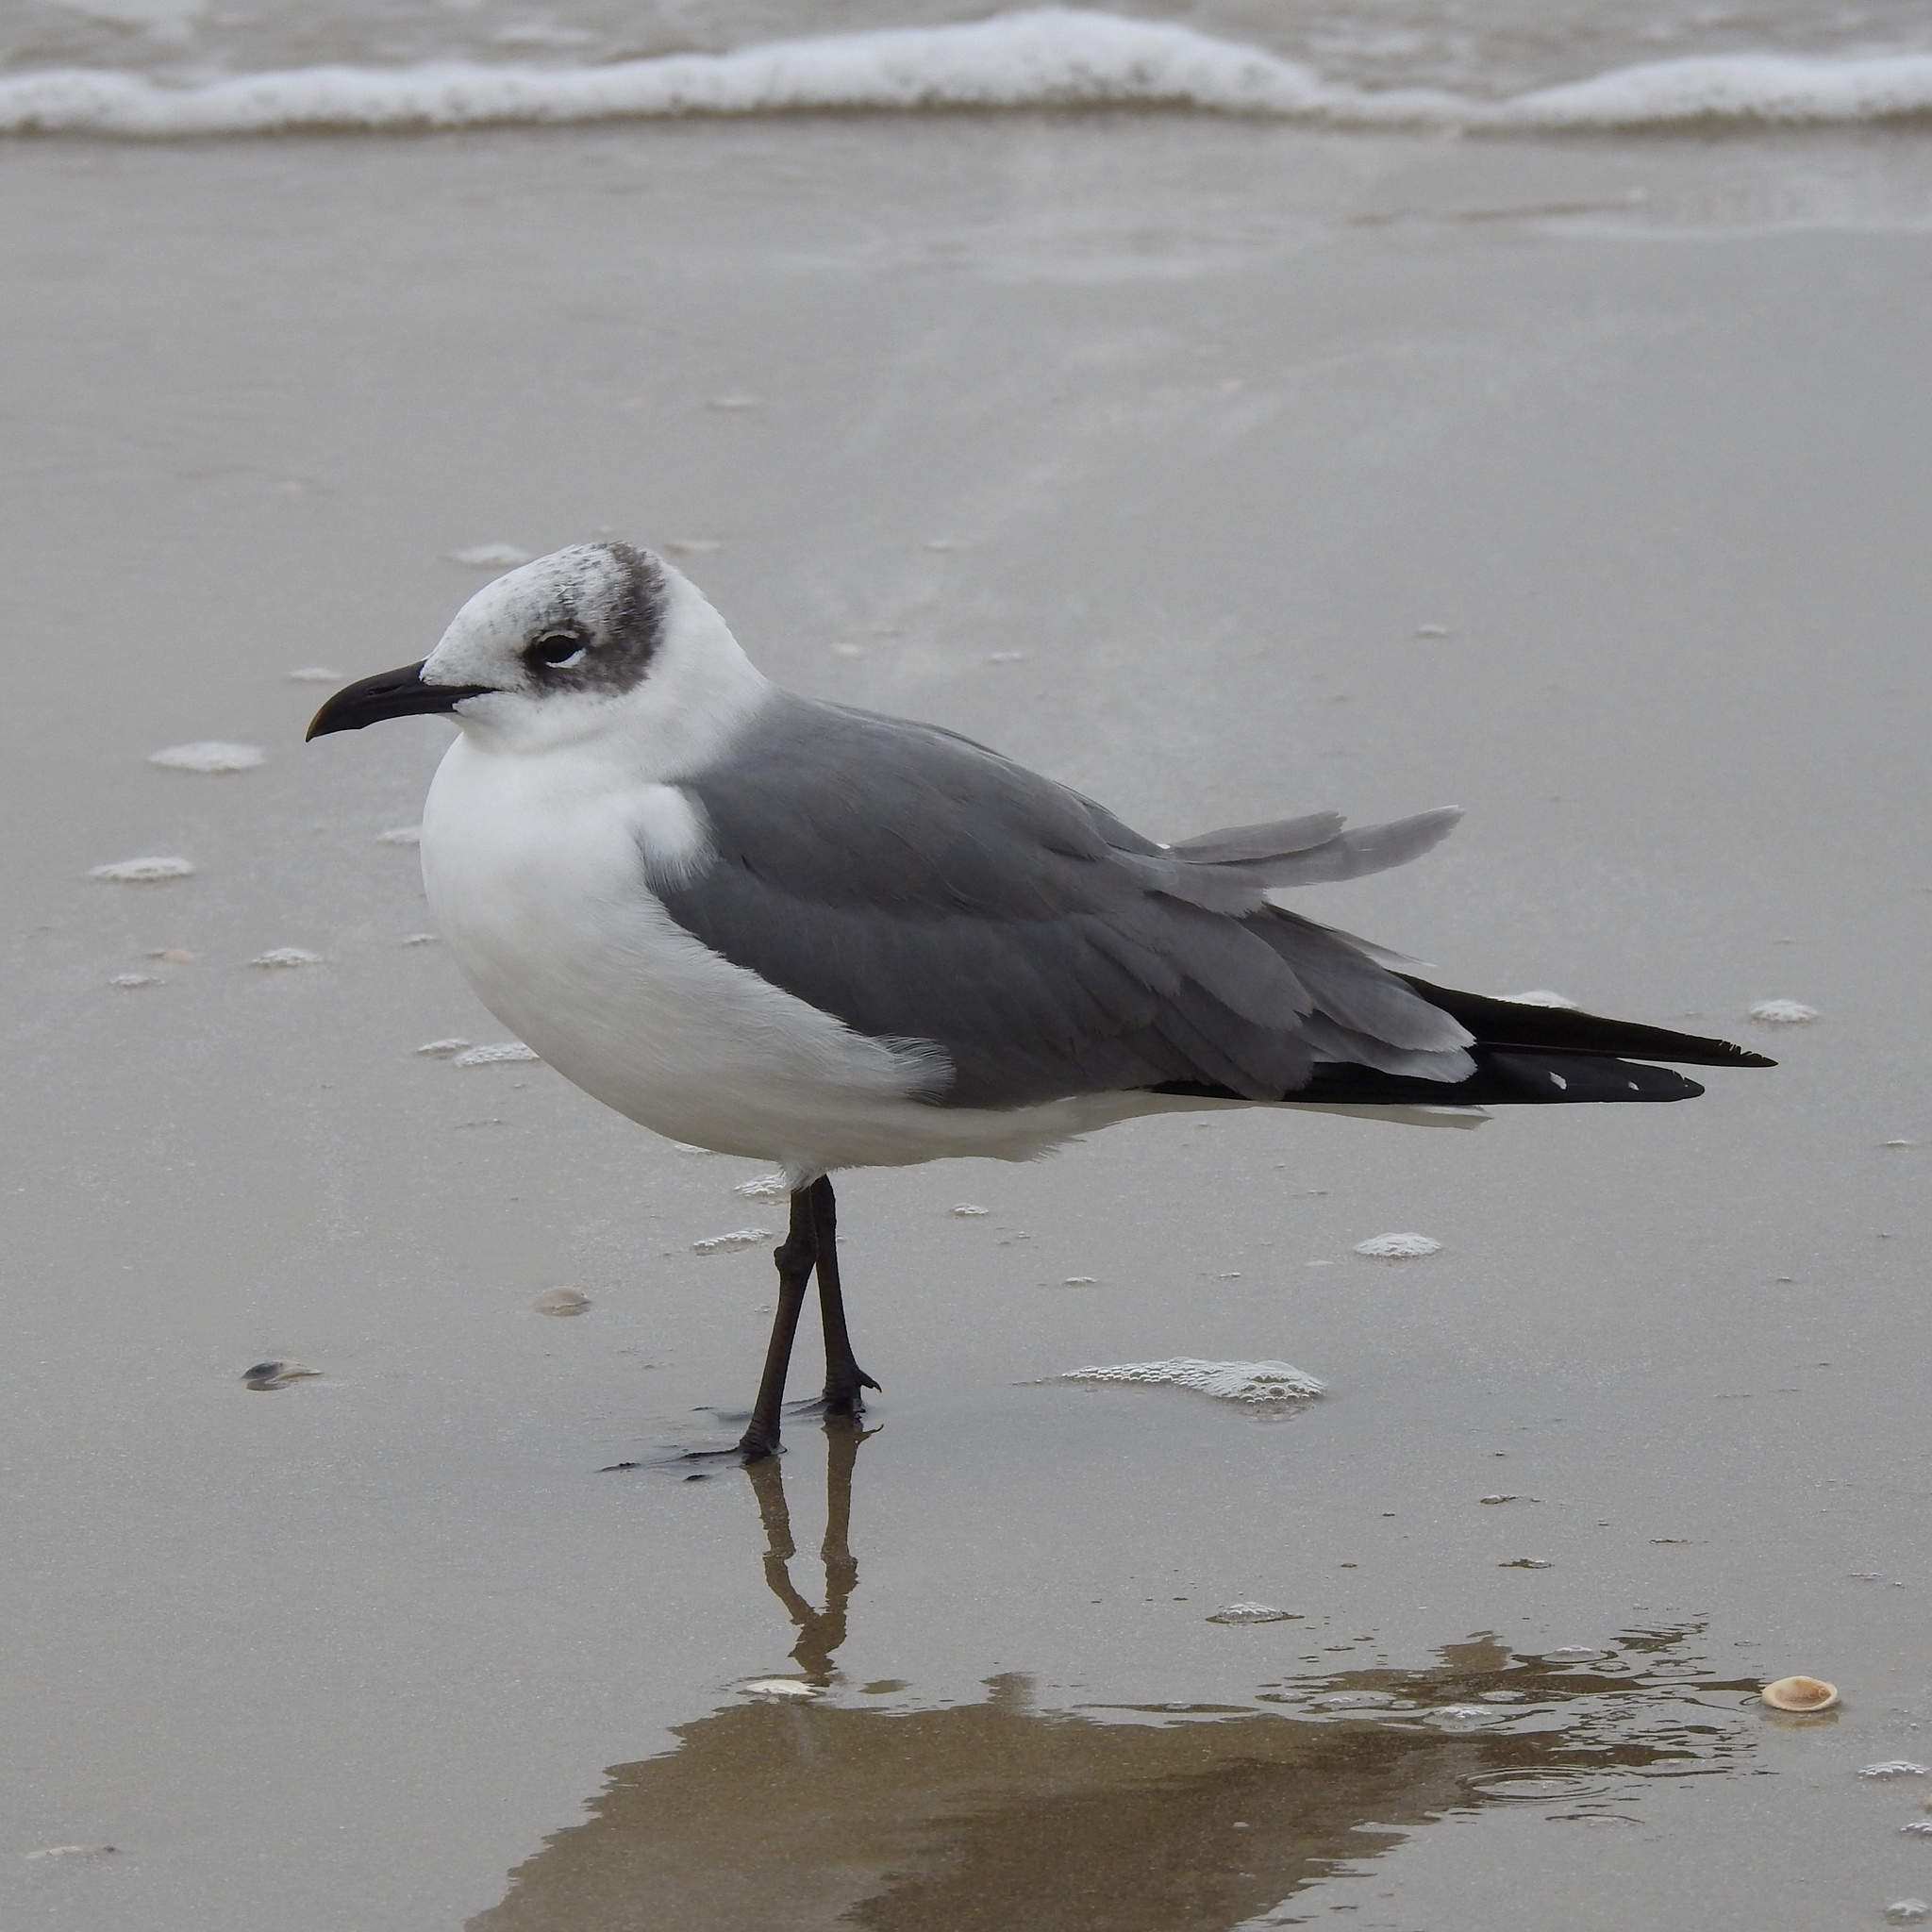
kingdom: Animalia
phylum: Chordata
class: Aves
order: Charadriiformes
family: Laridae
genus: Leucophaeus
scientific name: Leucophaeus atricilla
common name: Laughing gull
